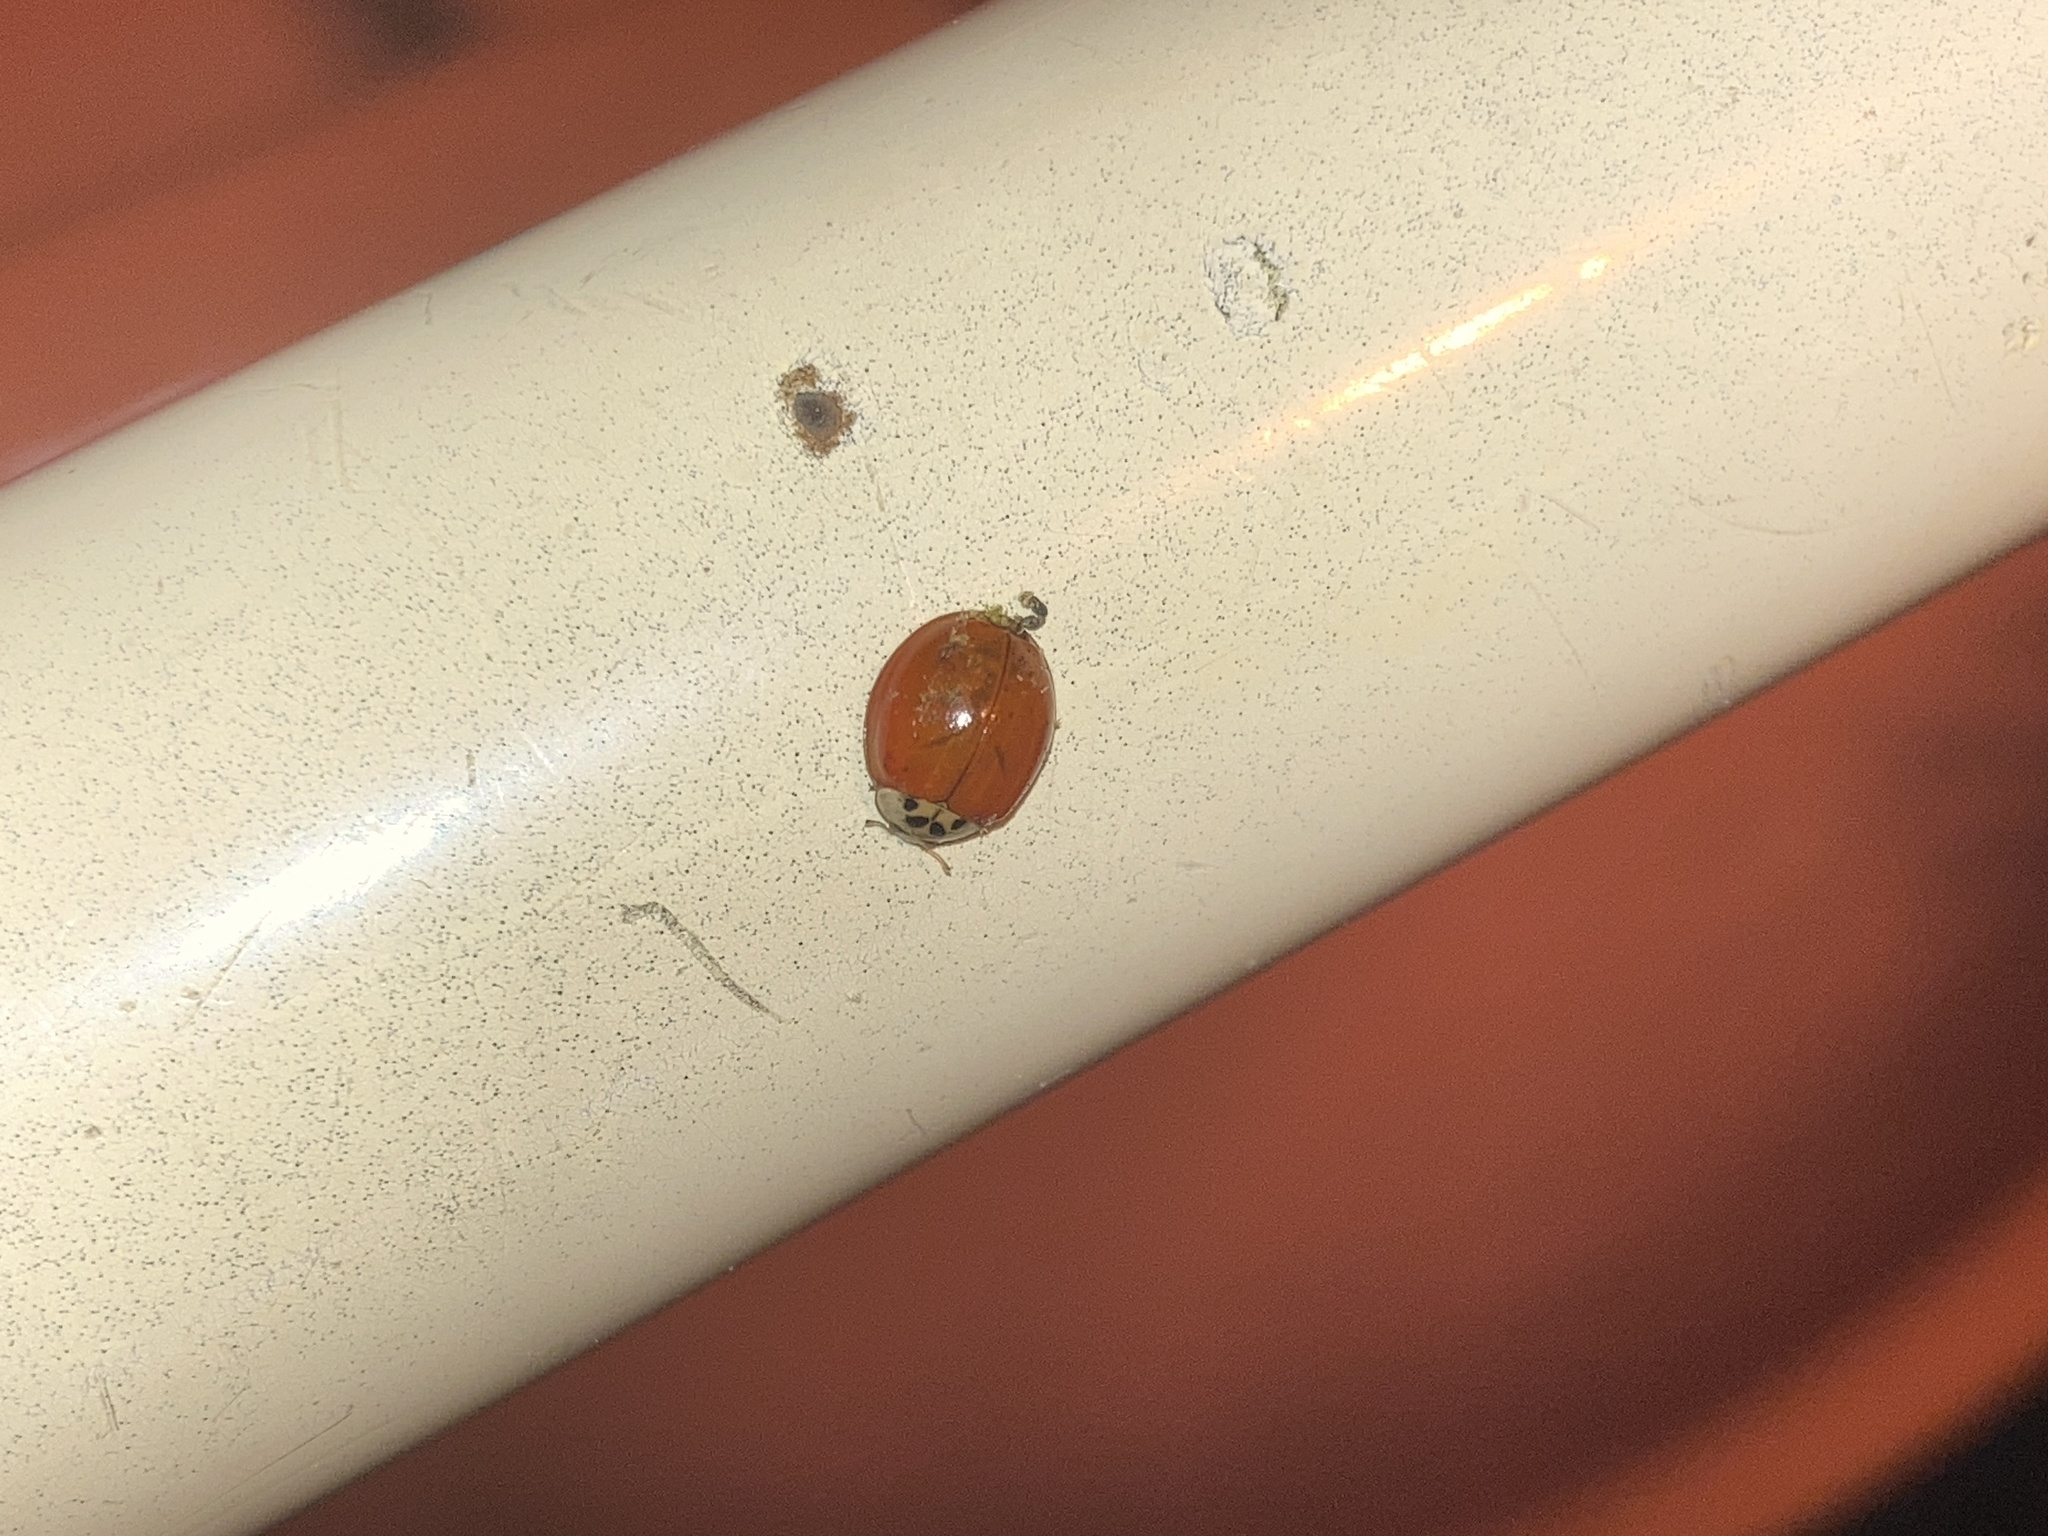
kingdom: Animalia
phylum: Arthropoda
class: Insecta
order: Coleoptera
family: Coccinellidae
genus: Harmonia
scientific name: Harmonia axyridis
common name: Harlequin ladybird
